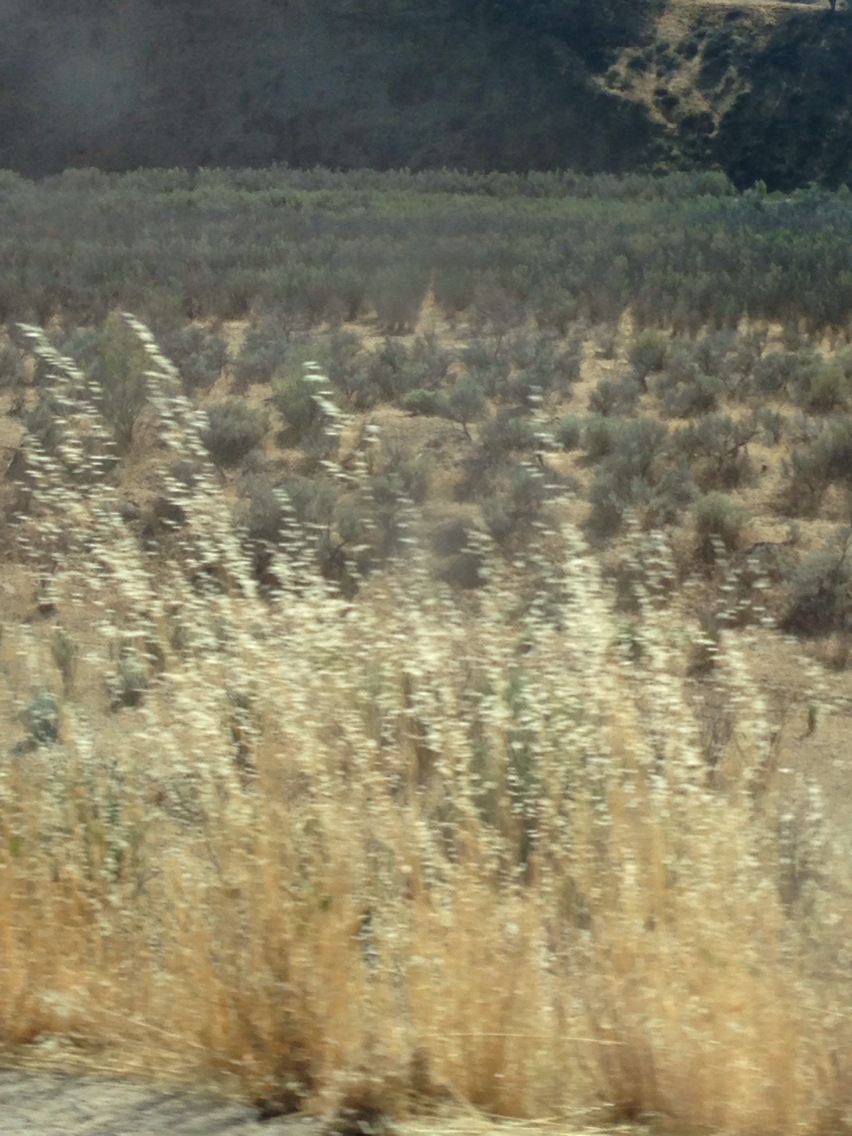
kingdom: Plantae
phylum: Tracheophyta
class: Magnoliopsida
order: Asterales
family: Asteraceae
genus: Artemisia
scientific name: Artemisia tridentata
